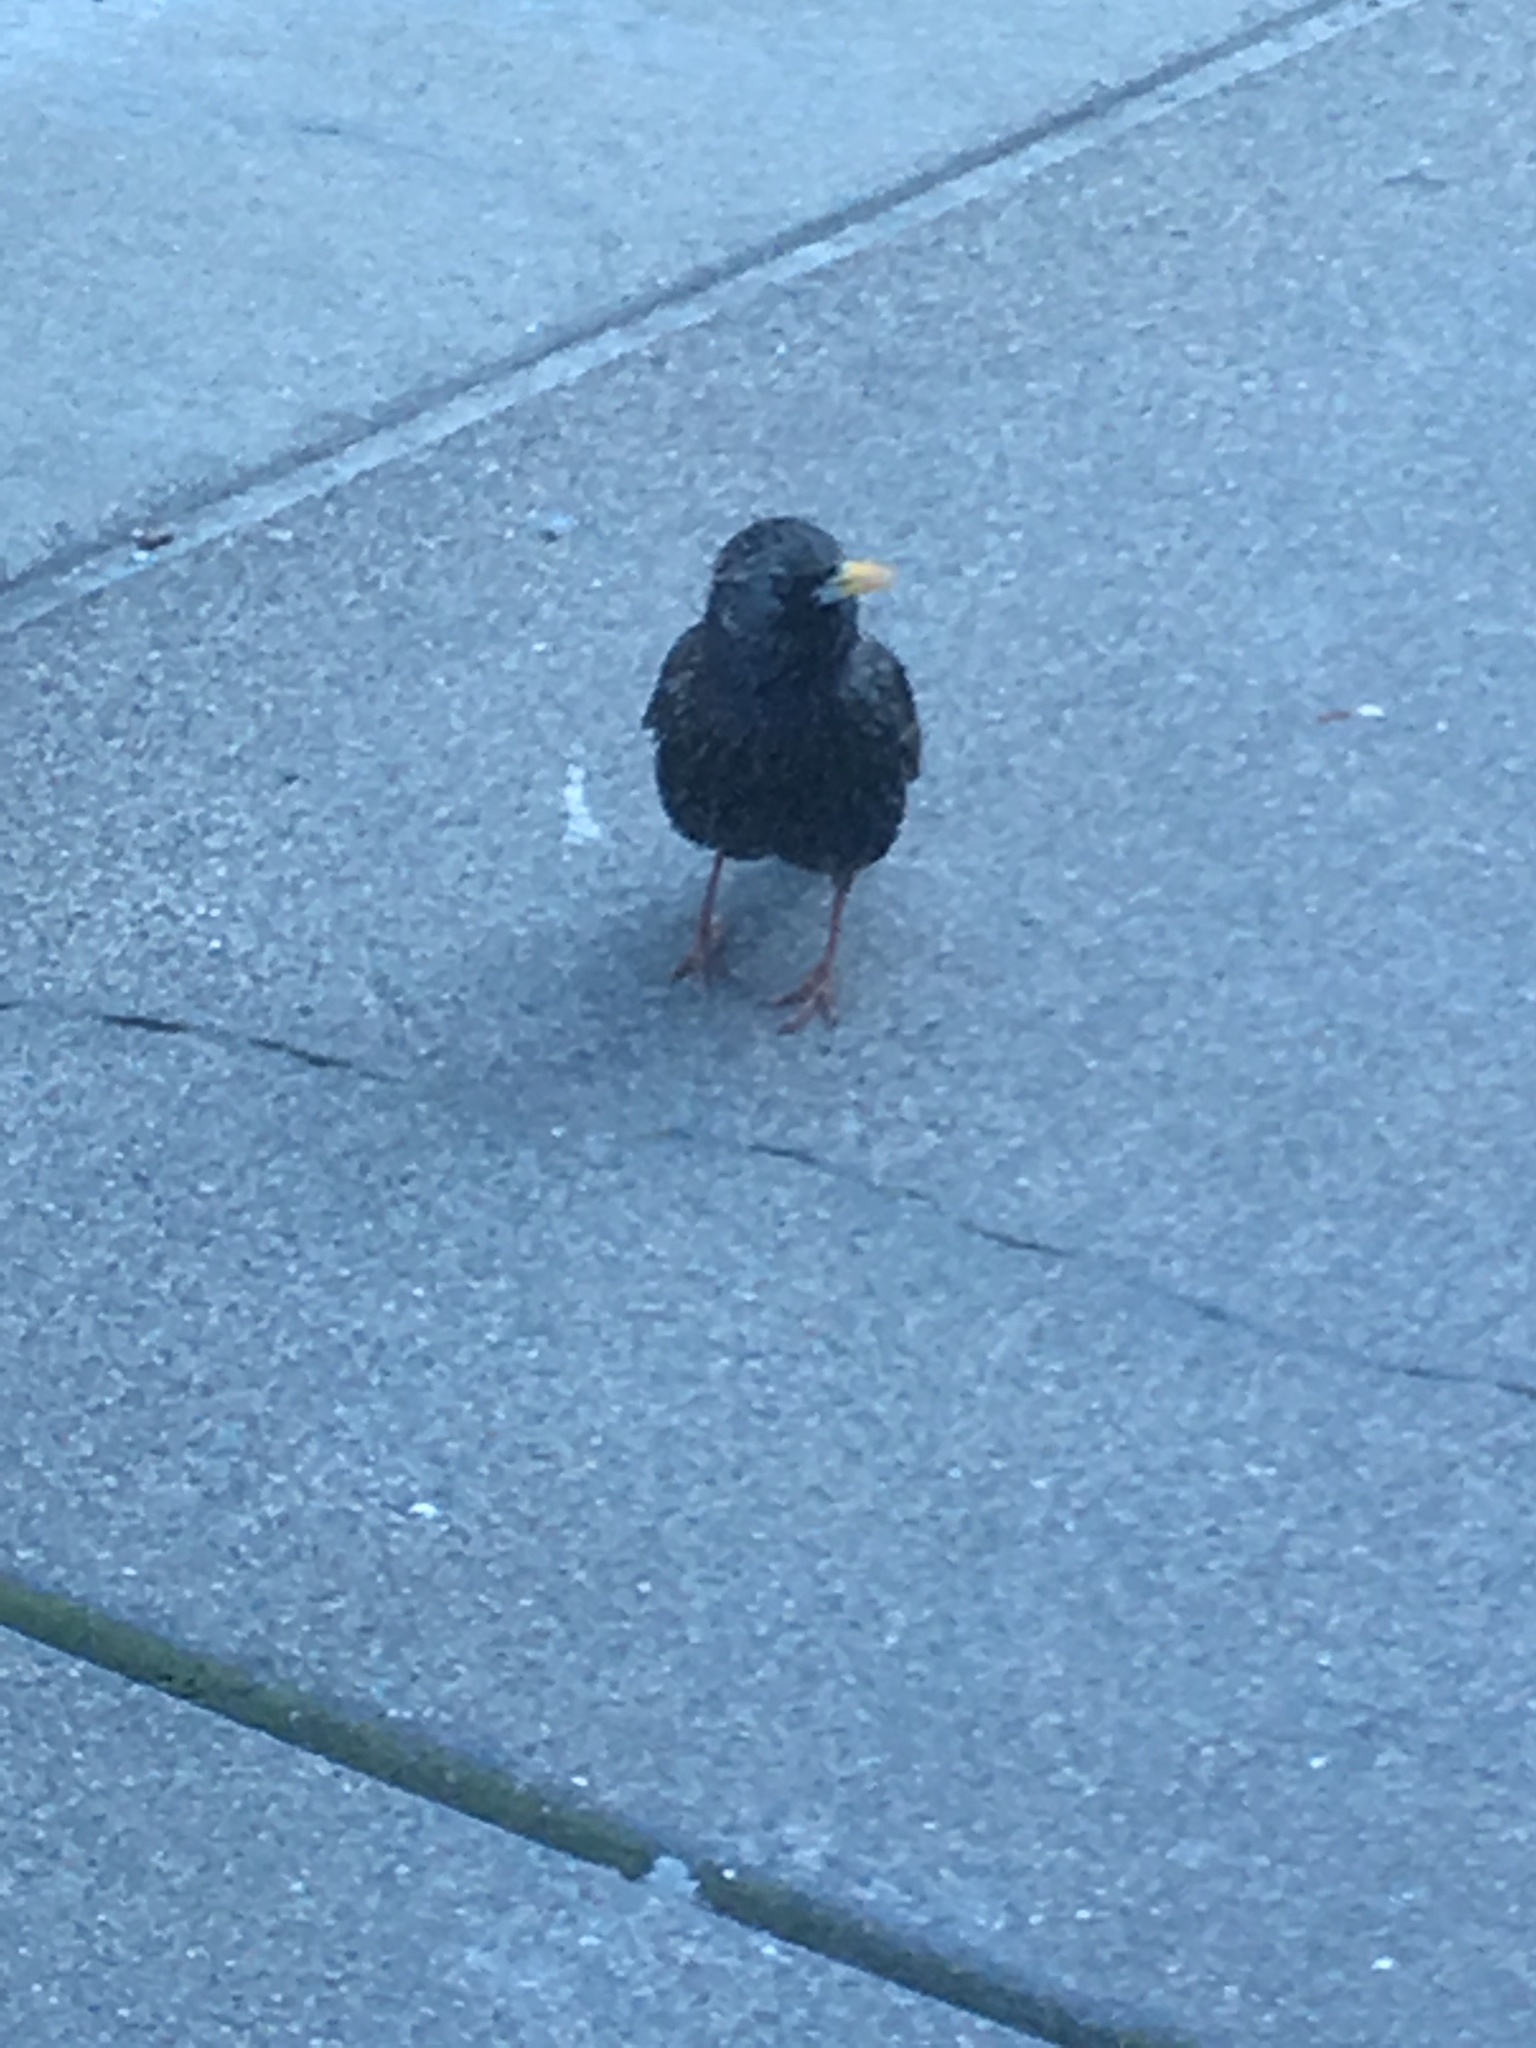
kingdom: Animalia
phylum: Chordata
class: Aves
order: Passeriformes
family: Sturnidae
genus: Sturnus
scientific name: Sturnus vulgaris
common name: Common starling
